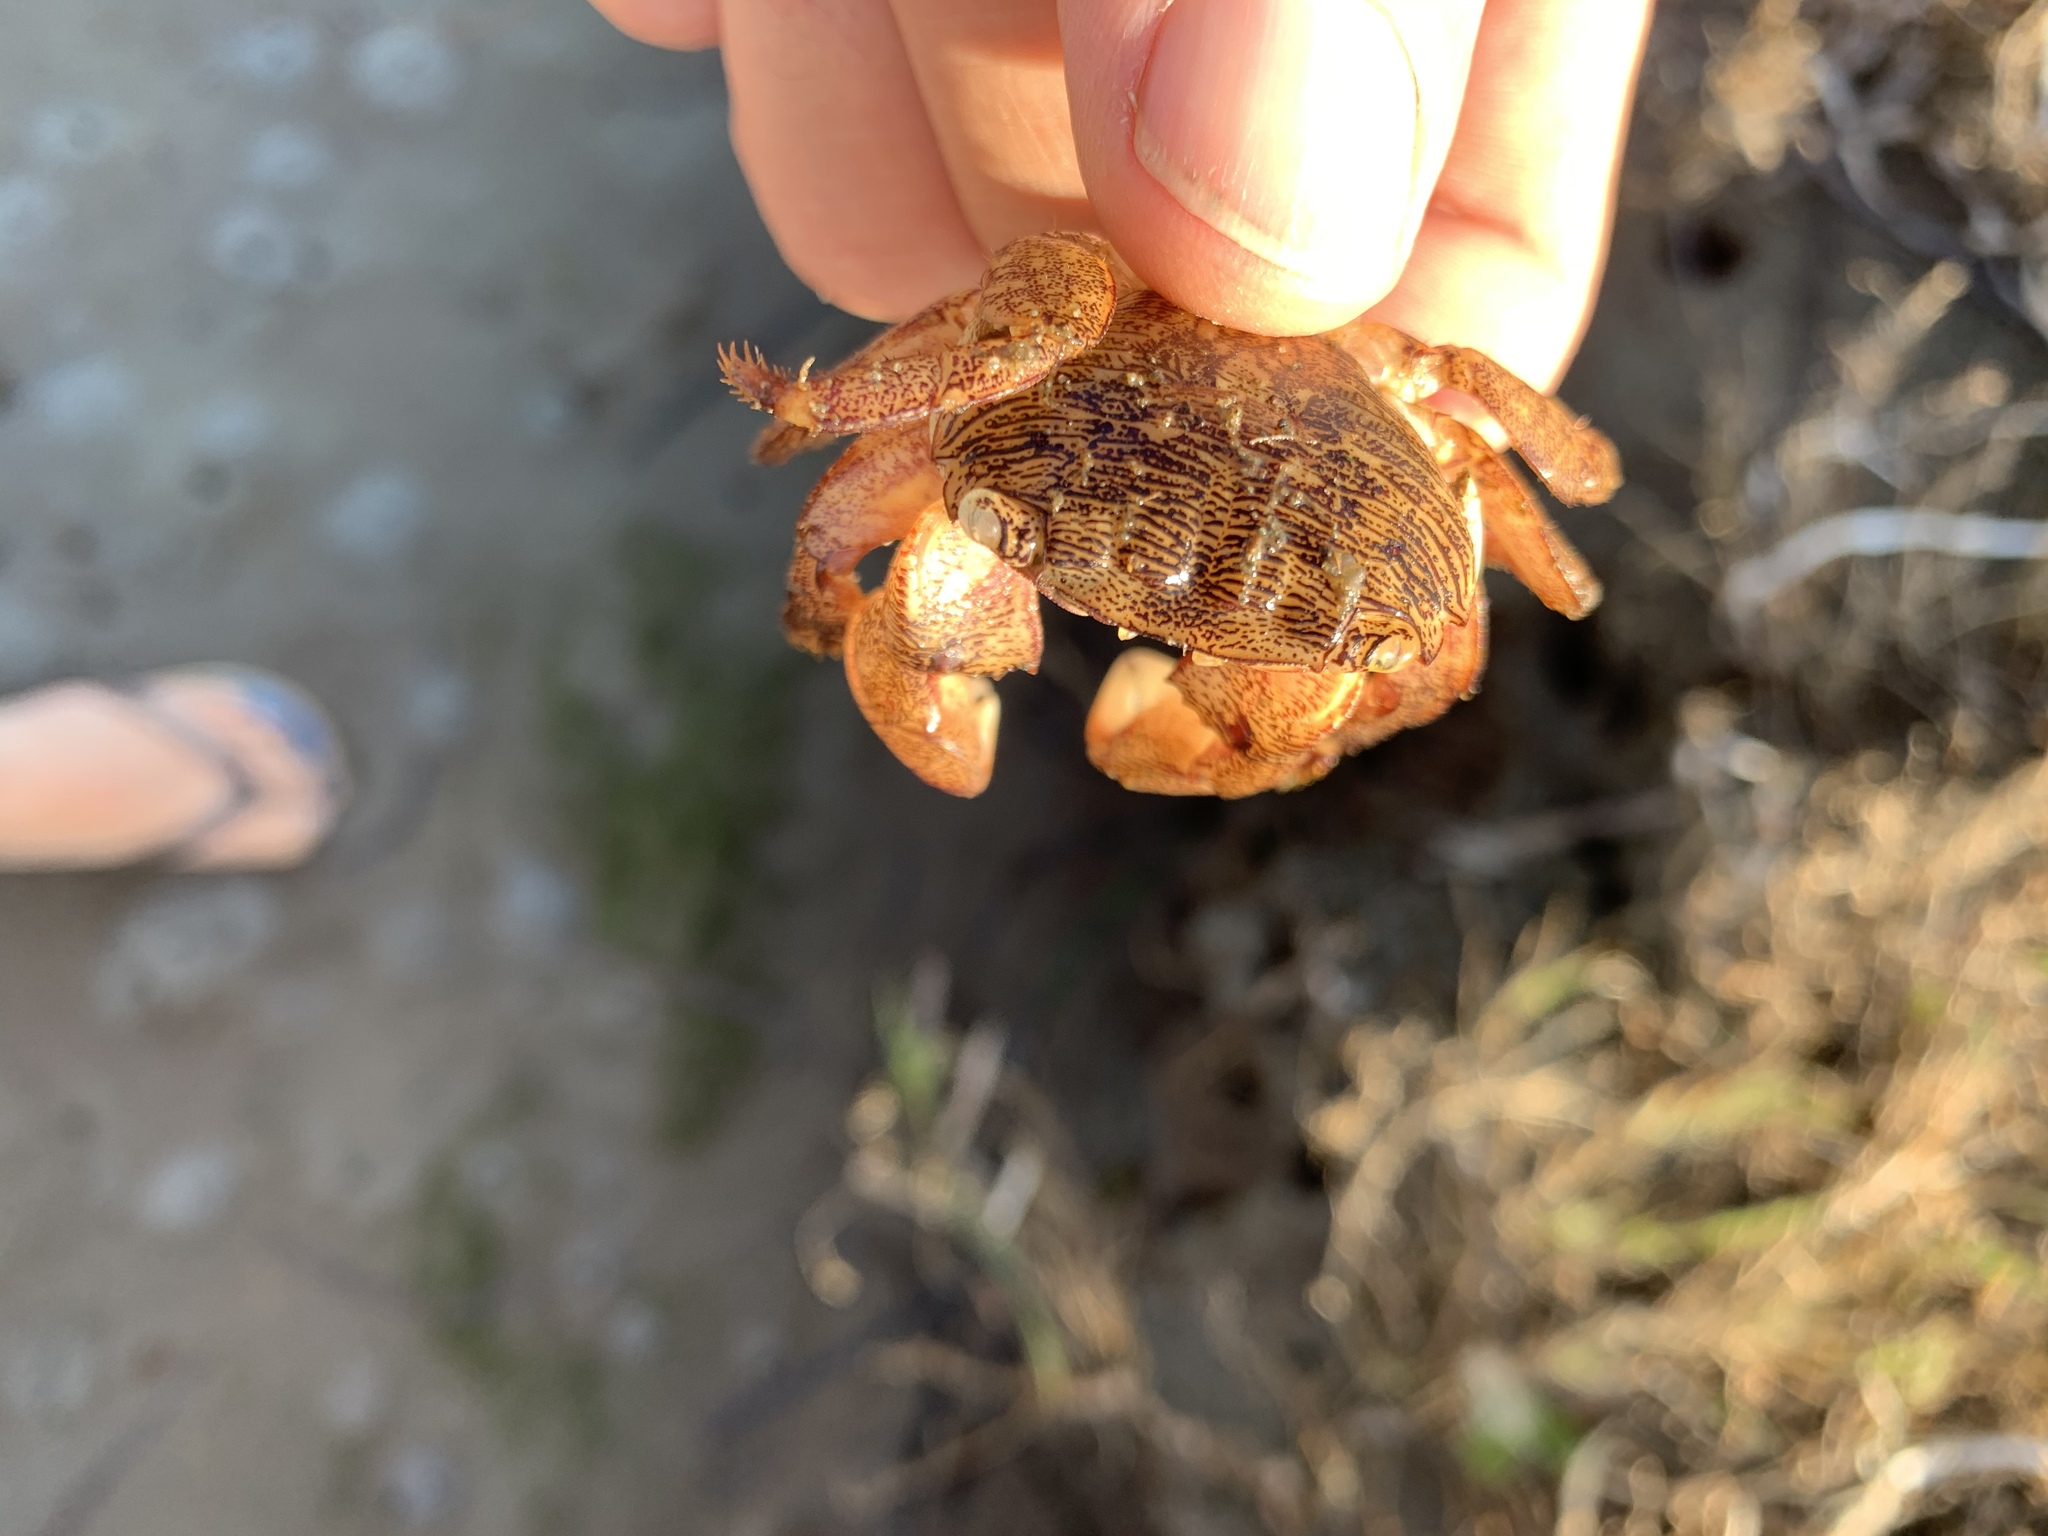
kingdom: Animalia
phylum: Arthropoda
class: Malacostraca
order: Decapoda
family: Grapsidae
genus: Pachygrapsus
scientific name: Pachygrapsus crassipes
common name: Striped shore crab
